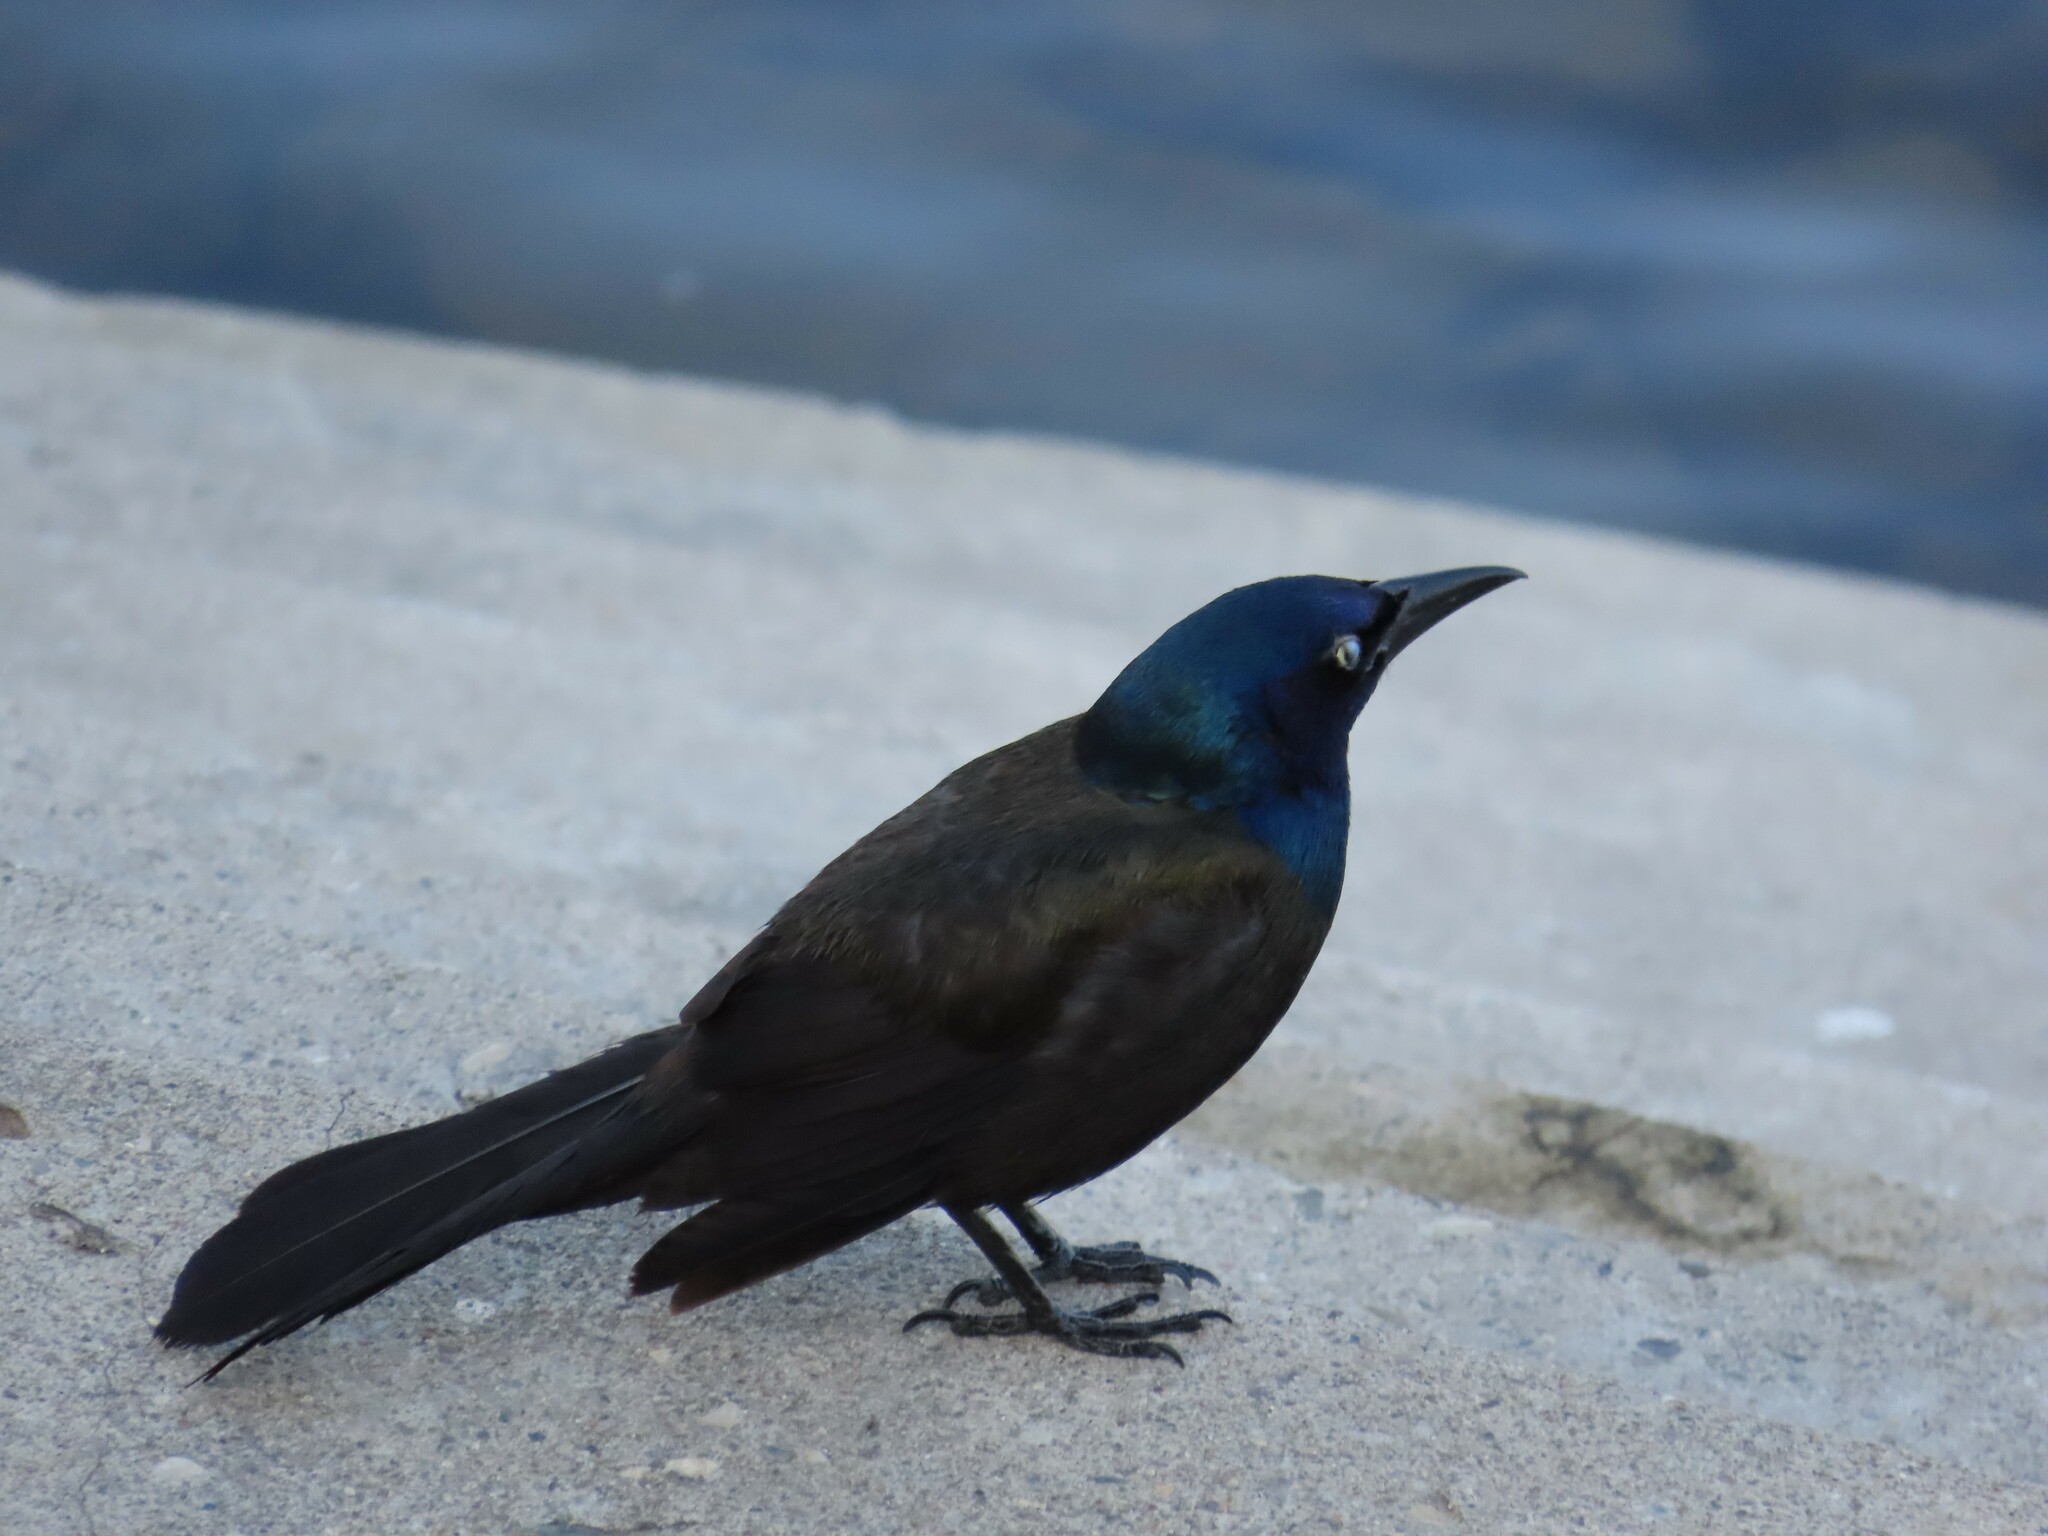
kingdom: Animalia
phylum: Chordata
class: Aves
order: Passeriformes
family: Icteridae
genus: Quiscalus
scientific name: Quiscalus quiscula
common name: Common grackle
